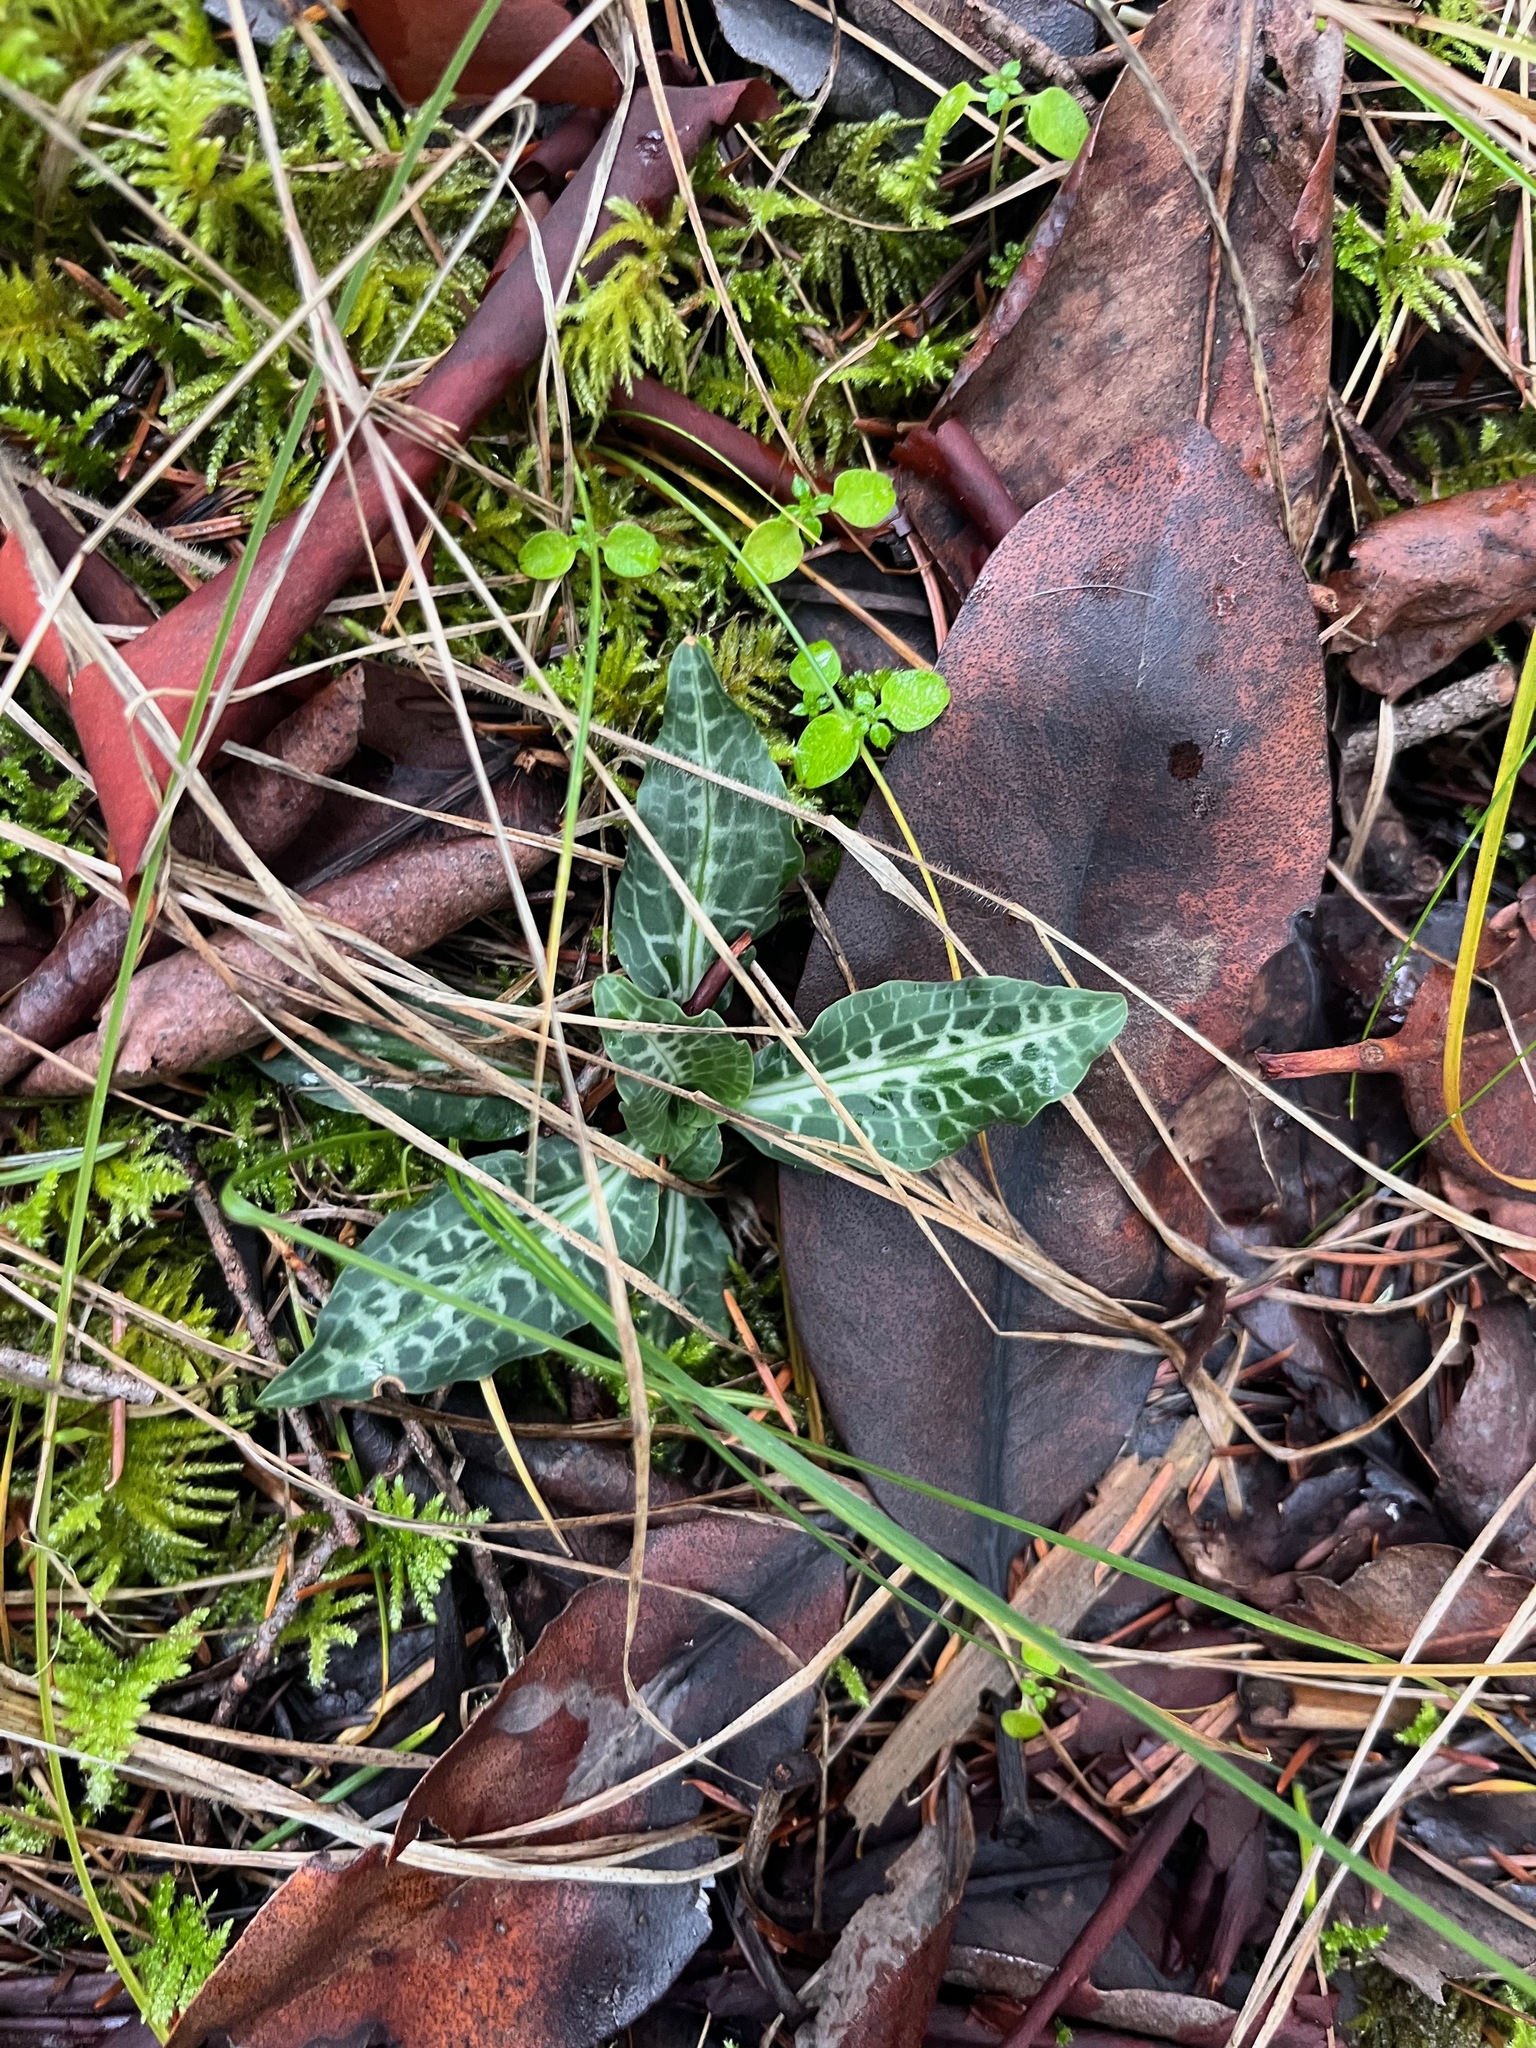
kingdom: Plantae
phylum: Tracheophyta
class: Liliopsida
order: Asparagales
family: Orchidaceae
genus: Goodyera
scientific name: Goodyera oblongifolia
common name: Giant rattlesnake-plantain
